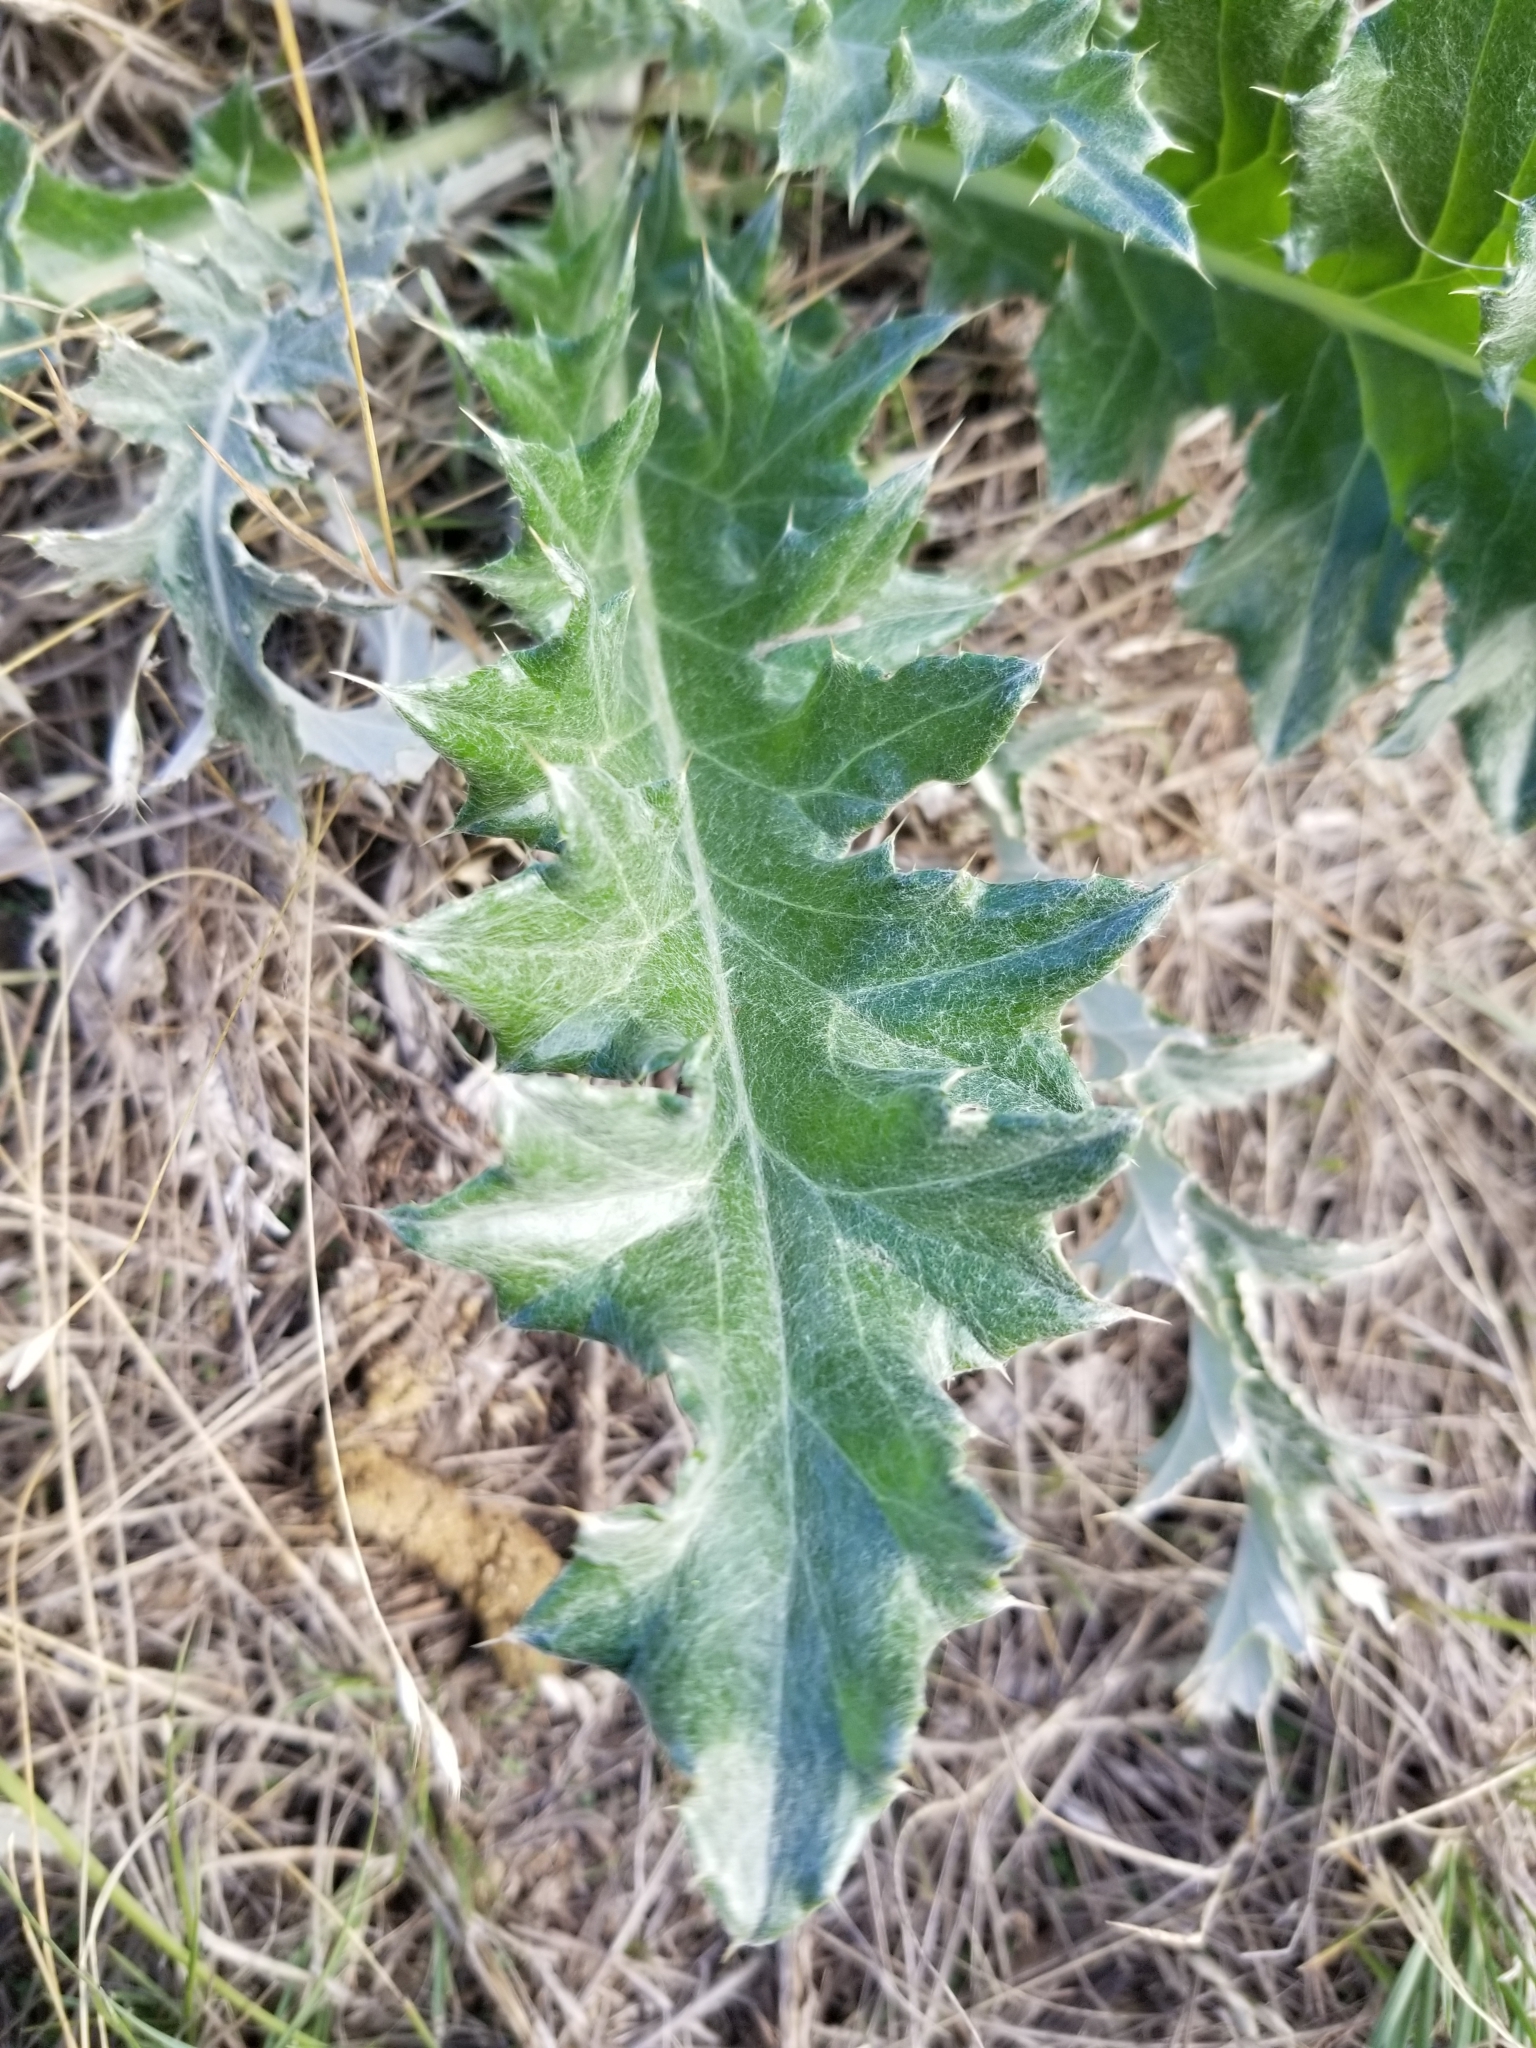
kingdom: Plantae
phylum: Tracheophyta
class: Magnoliopsida
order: Asterales
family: Asteraceae
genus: Cirsium
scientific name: Cirsium undulatum
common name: Pasture thistle
